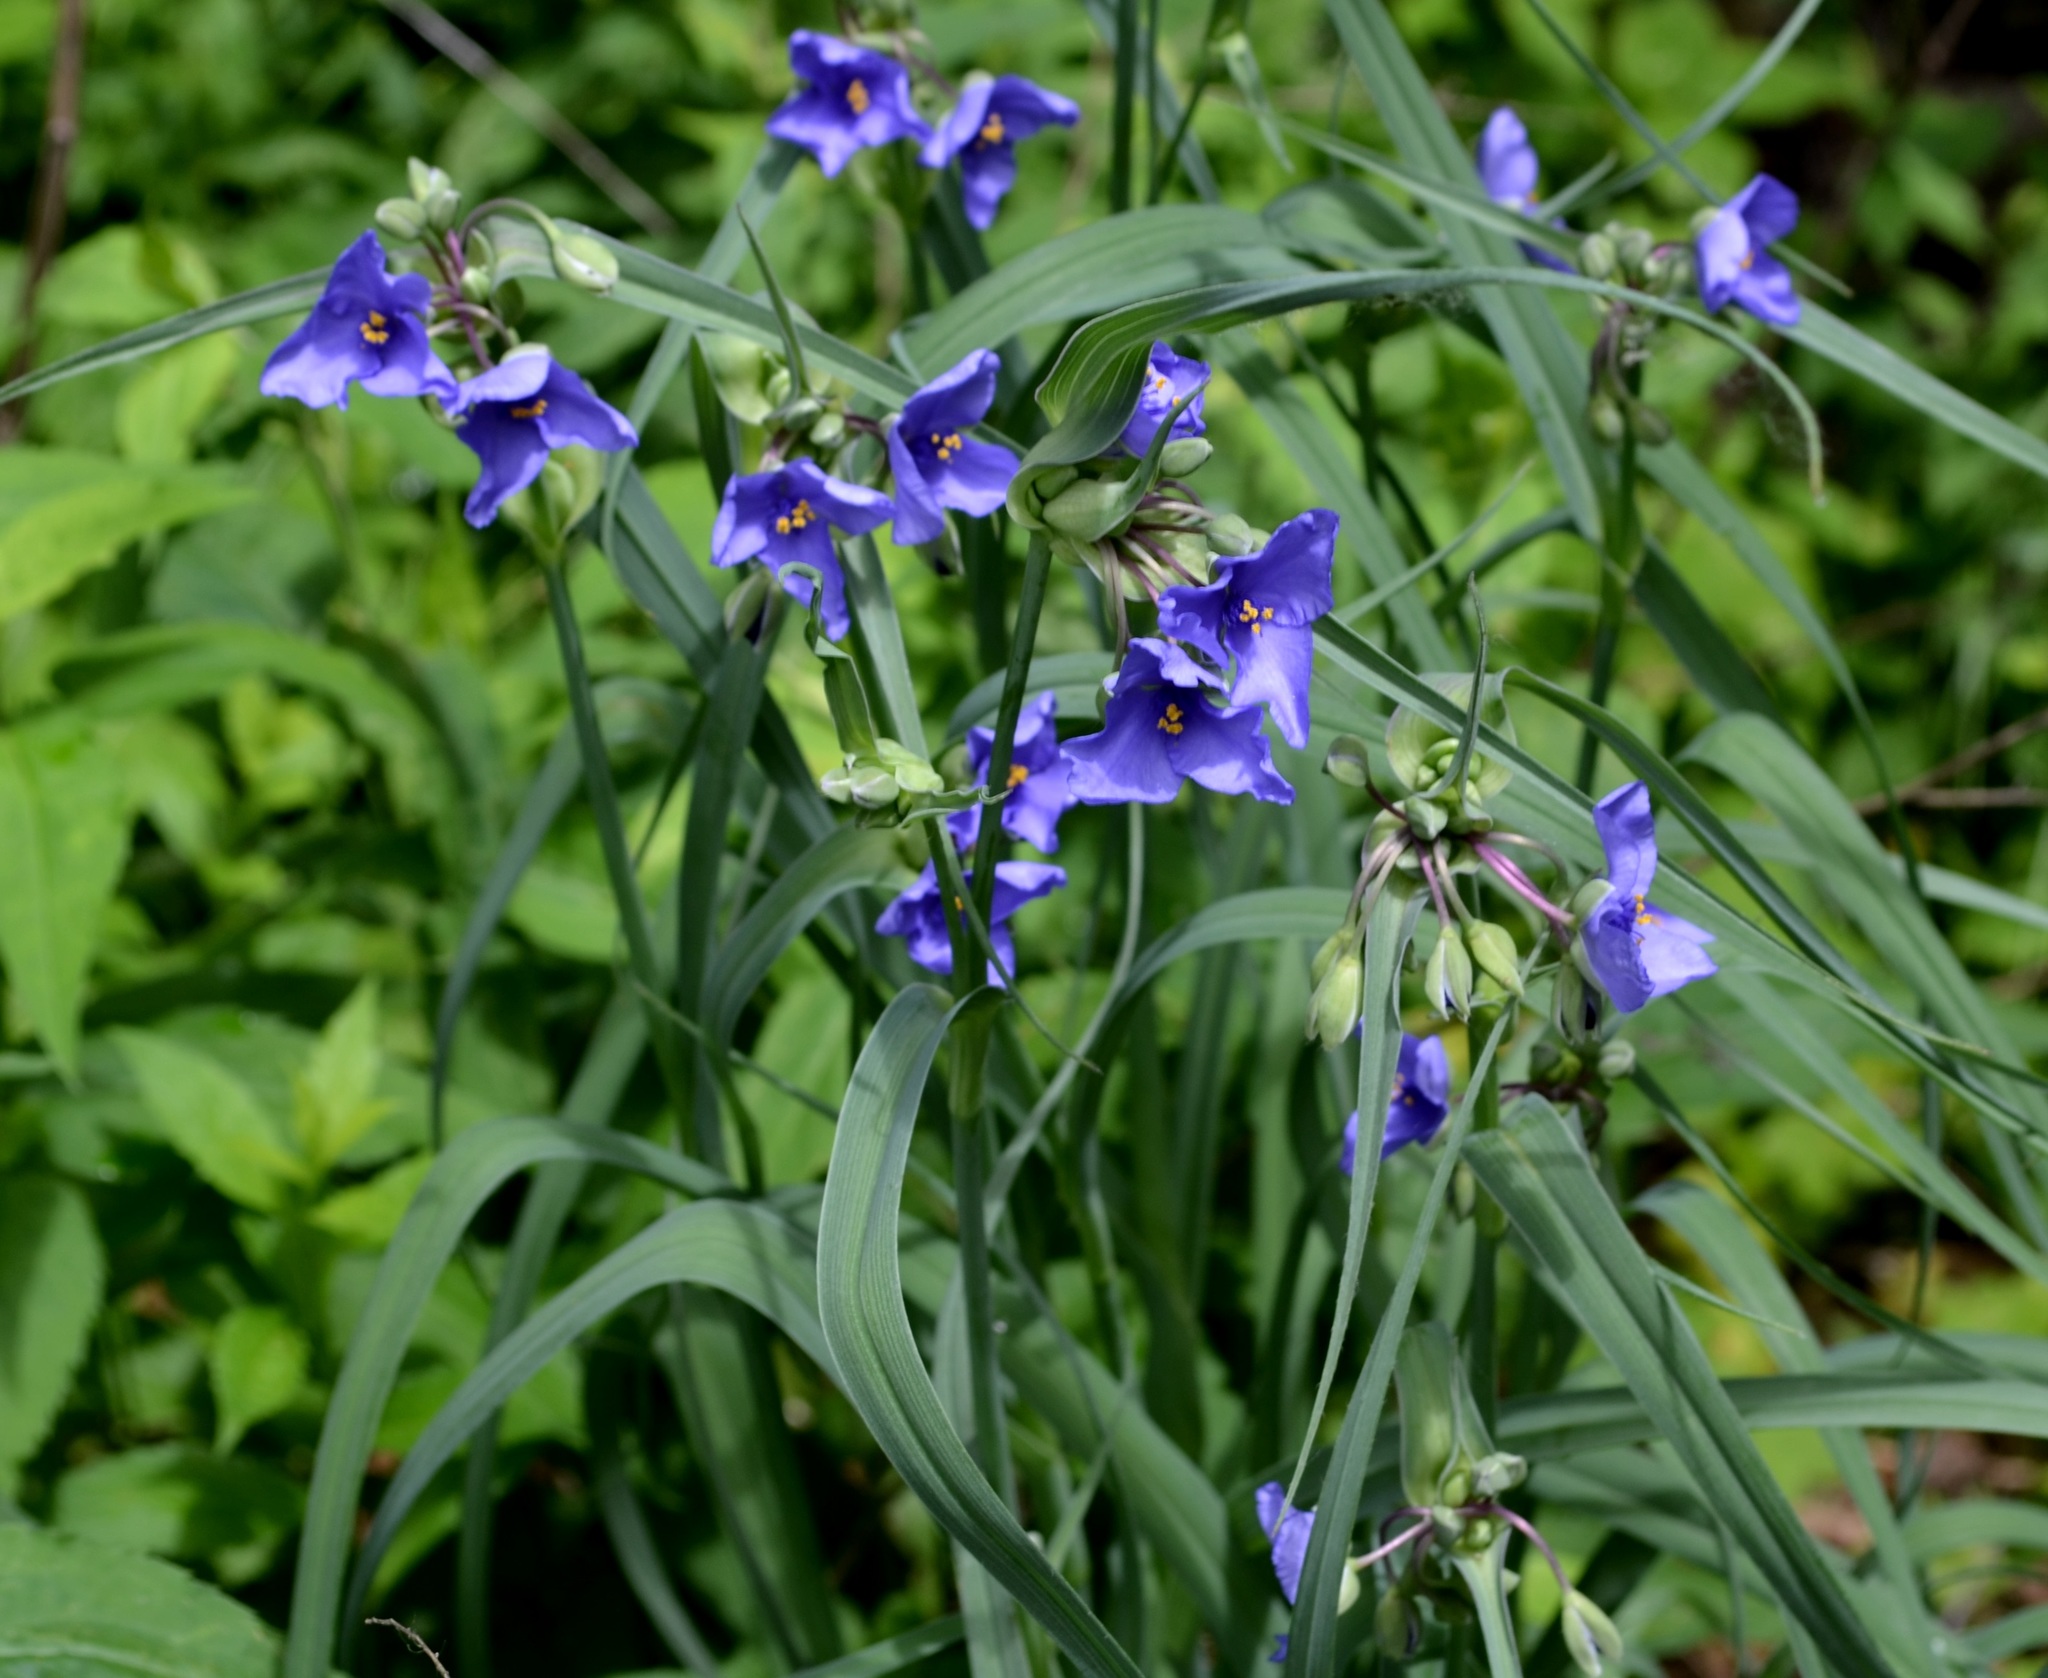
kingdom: Plantae
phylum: Tracheophyta
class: Liliopsida
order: Commelinales
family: Commelinaceae
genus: Tradescantia
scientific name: Tradescantia ohiensis
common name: Ohio spiderwort
